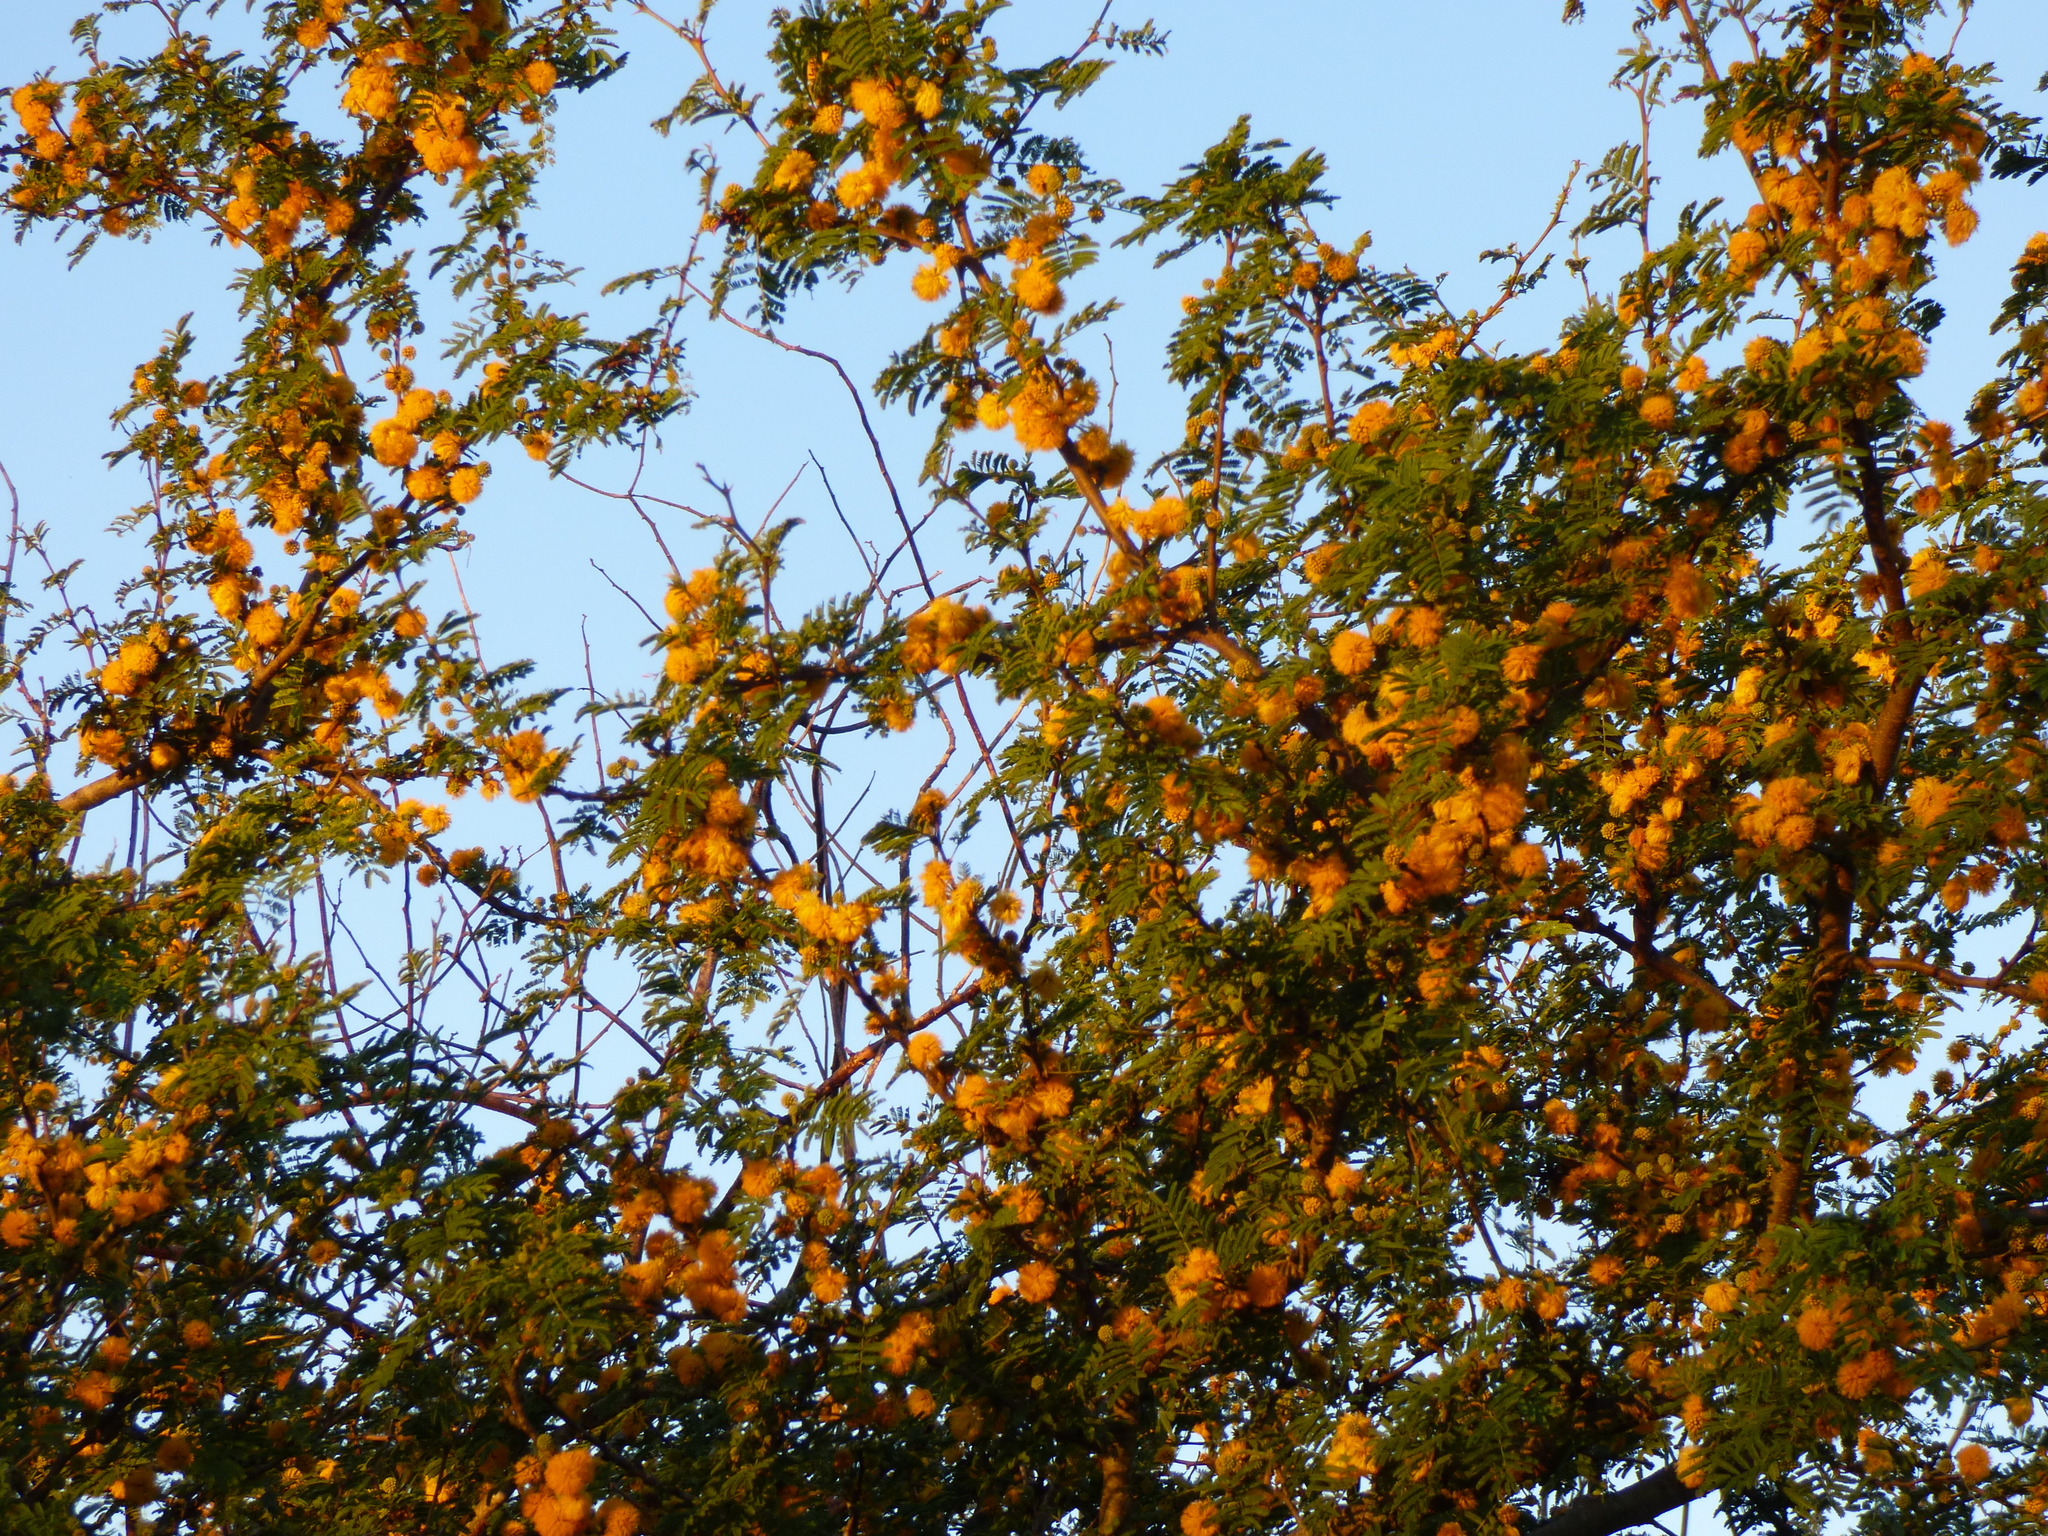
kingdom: Plantae
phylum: Tracheophyta
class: Magnoliopsida
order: Fabales
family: Fabaceae
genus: Vachellia
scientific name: Vachellia caven
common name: Roman cassie
